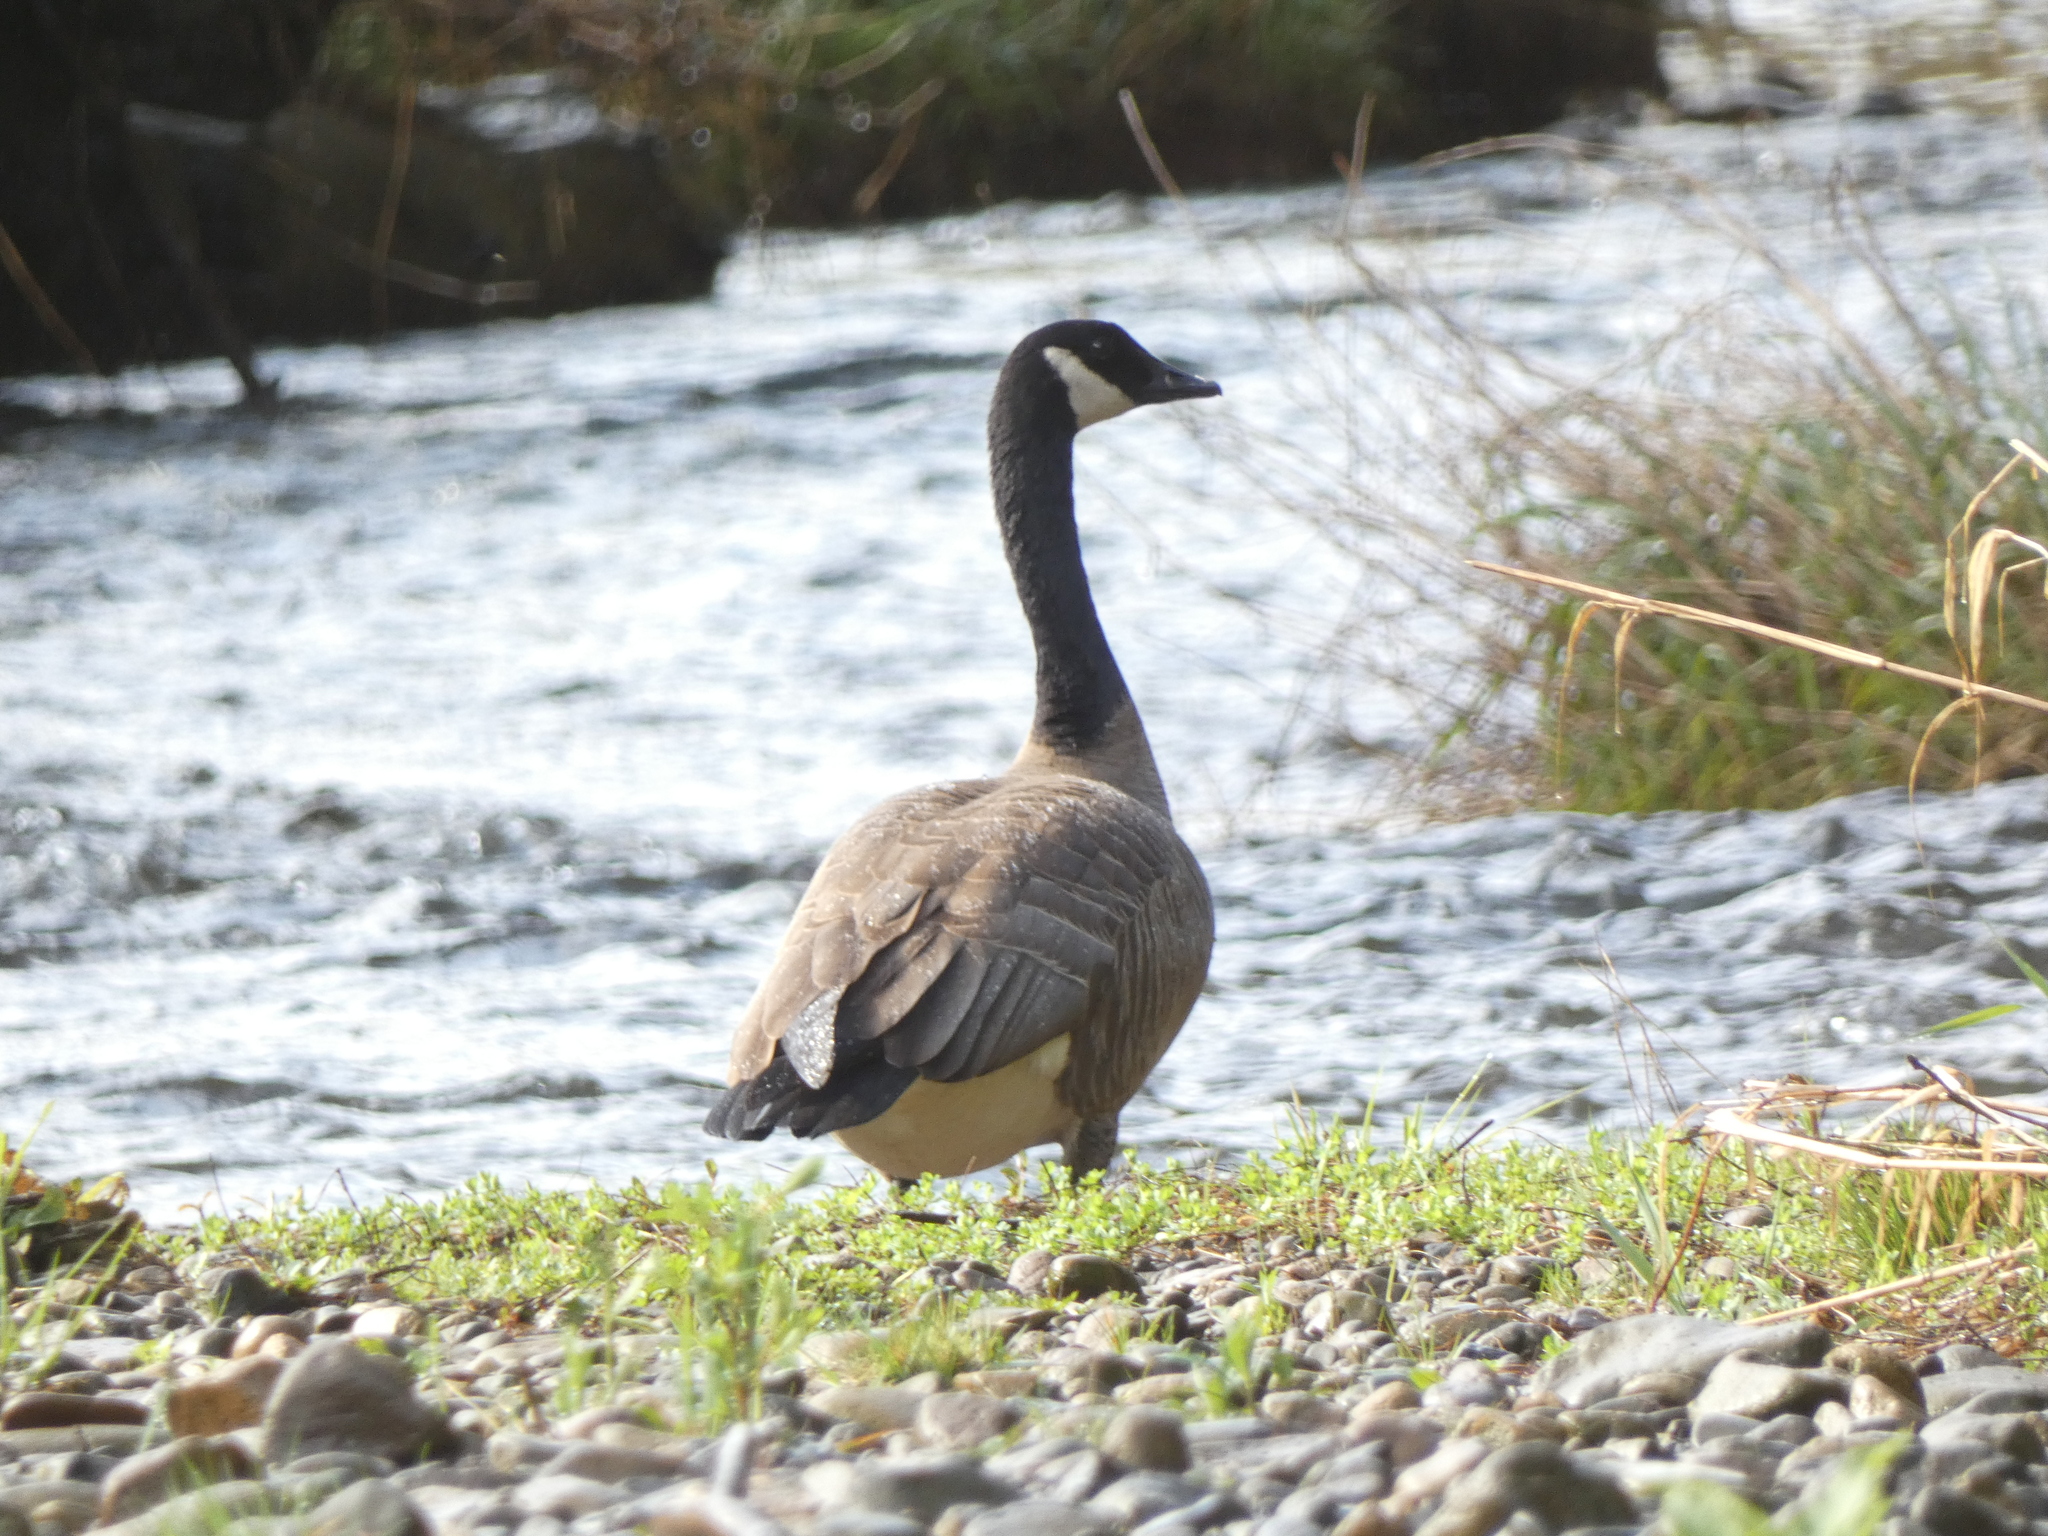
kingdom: Animalia
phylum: Chordata
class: Aves
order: Anseriformes
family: Anatidae
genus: Branta
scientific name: Branta canadensis
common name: Canada goose
